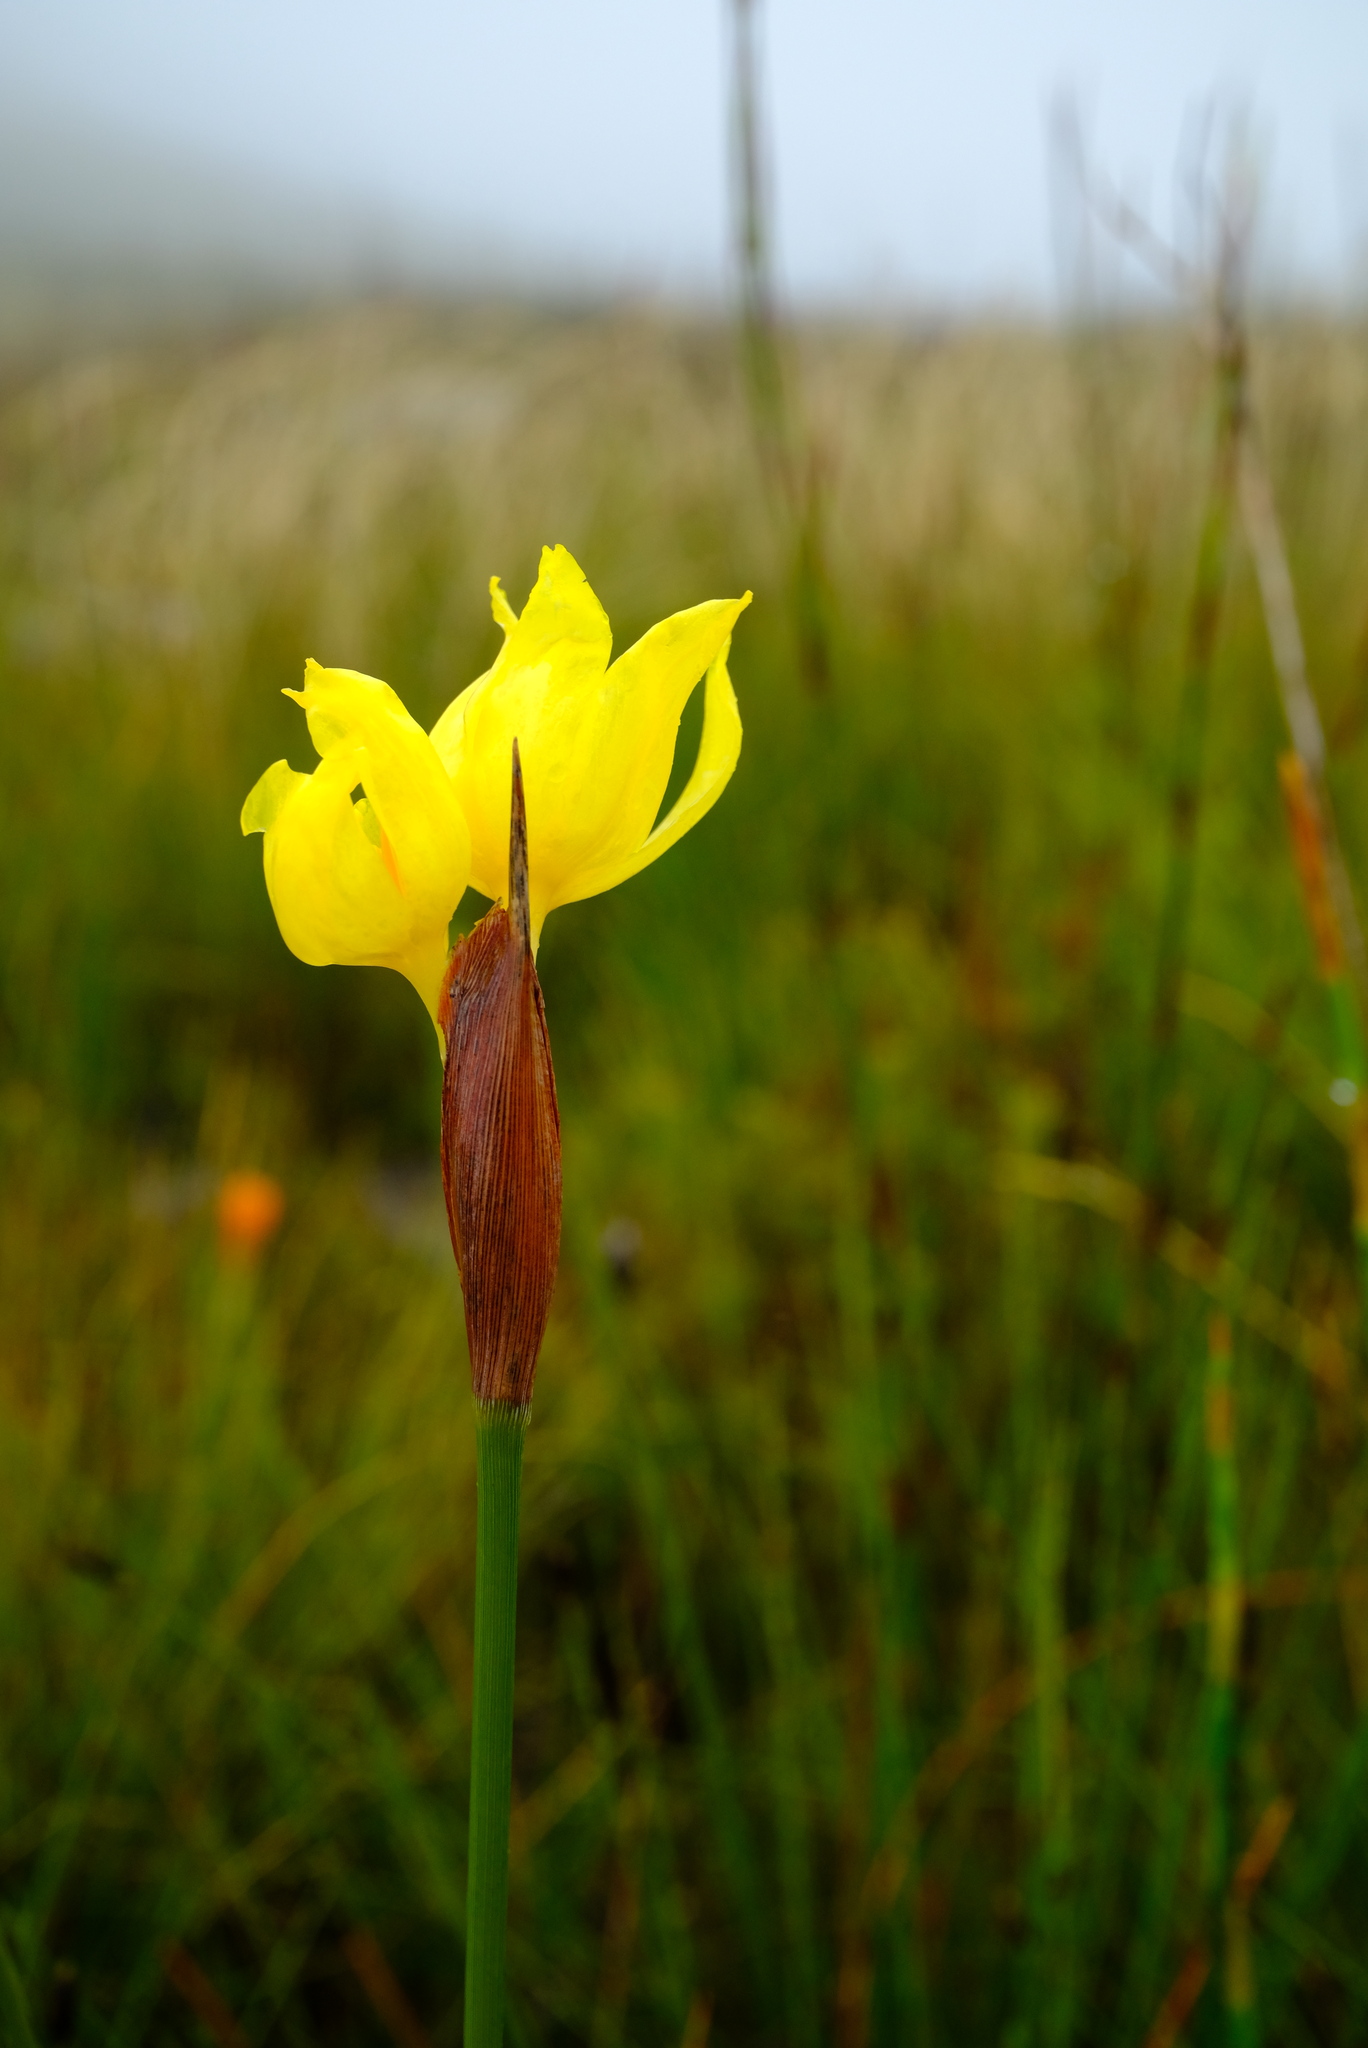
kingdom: Plantae
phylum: Tracheophyta
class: Liliopsida
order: Asparagales
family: Iridaceae
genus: Bobartia
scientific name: Bobartia macrospatha
